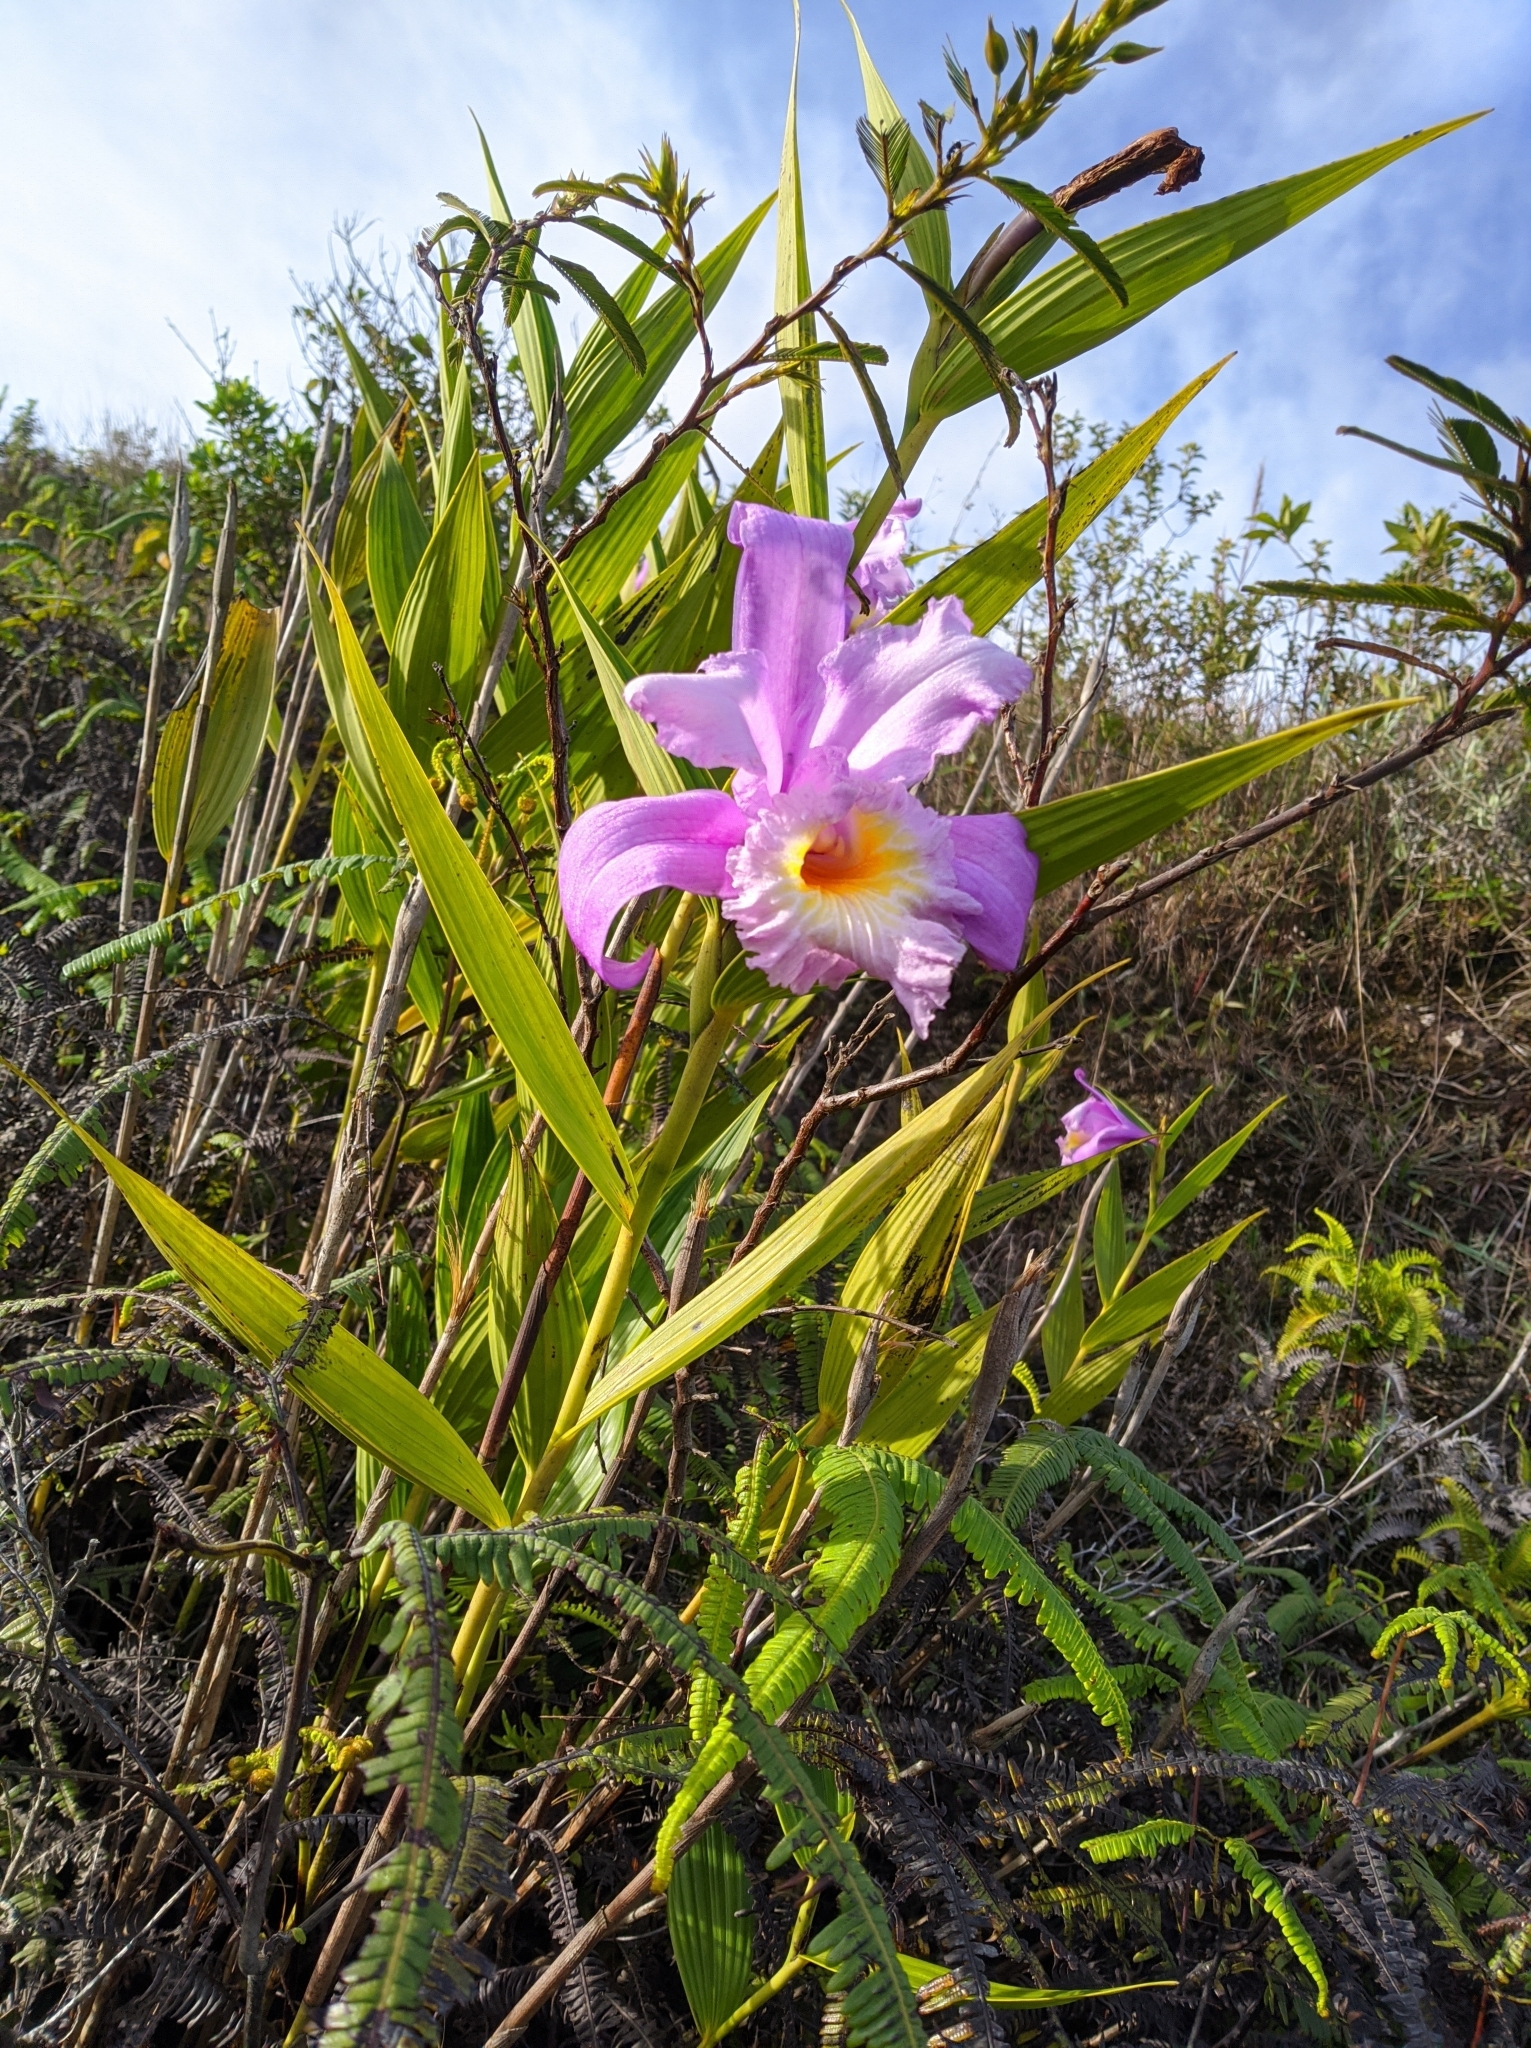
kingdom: Plantae
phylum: Tracheophyta
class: Liliopsida
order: Asparagales
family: Orchidaceae
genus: Sobralia
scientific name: Sobralia violacea
